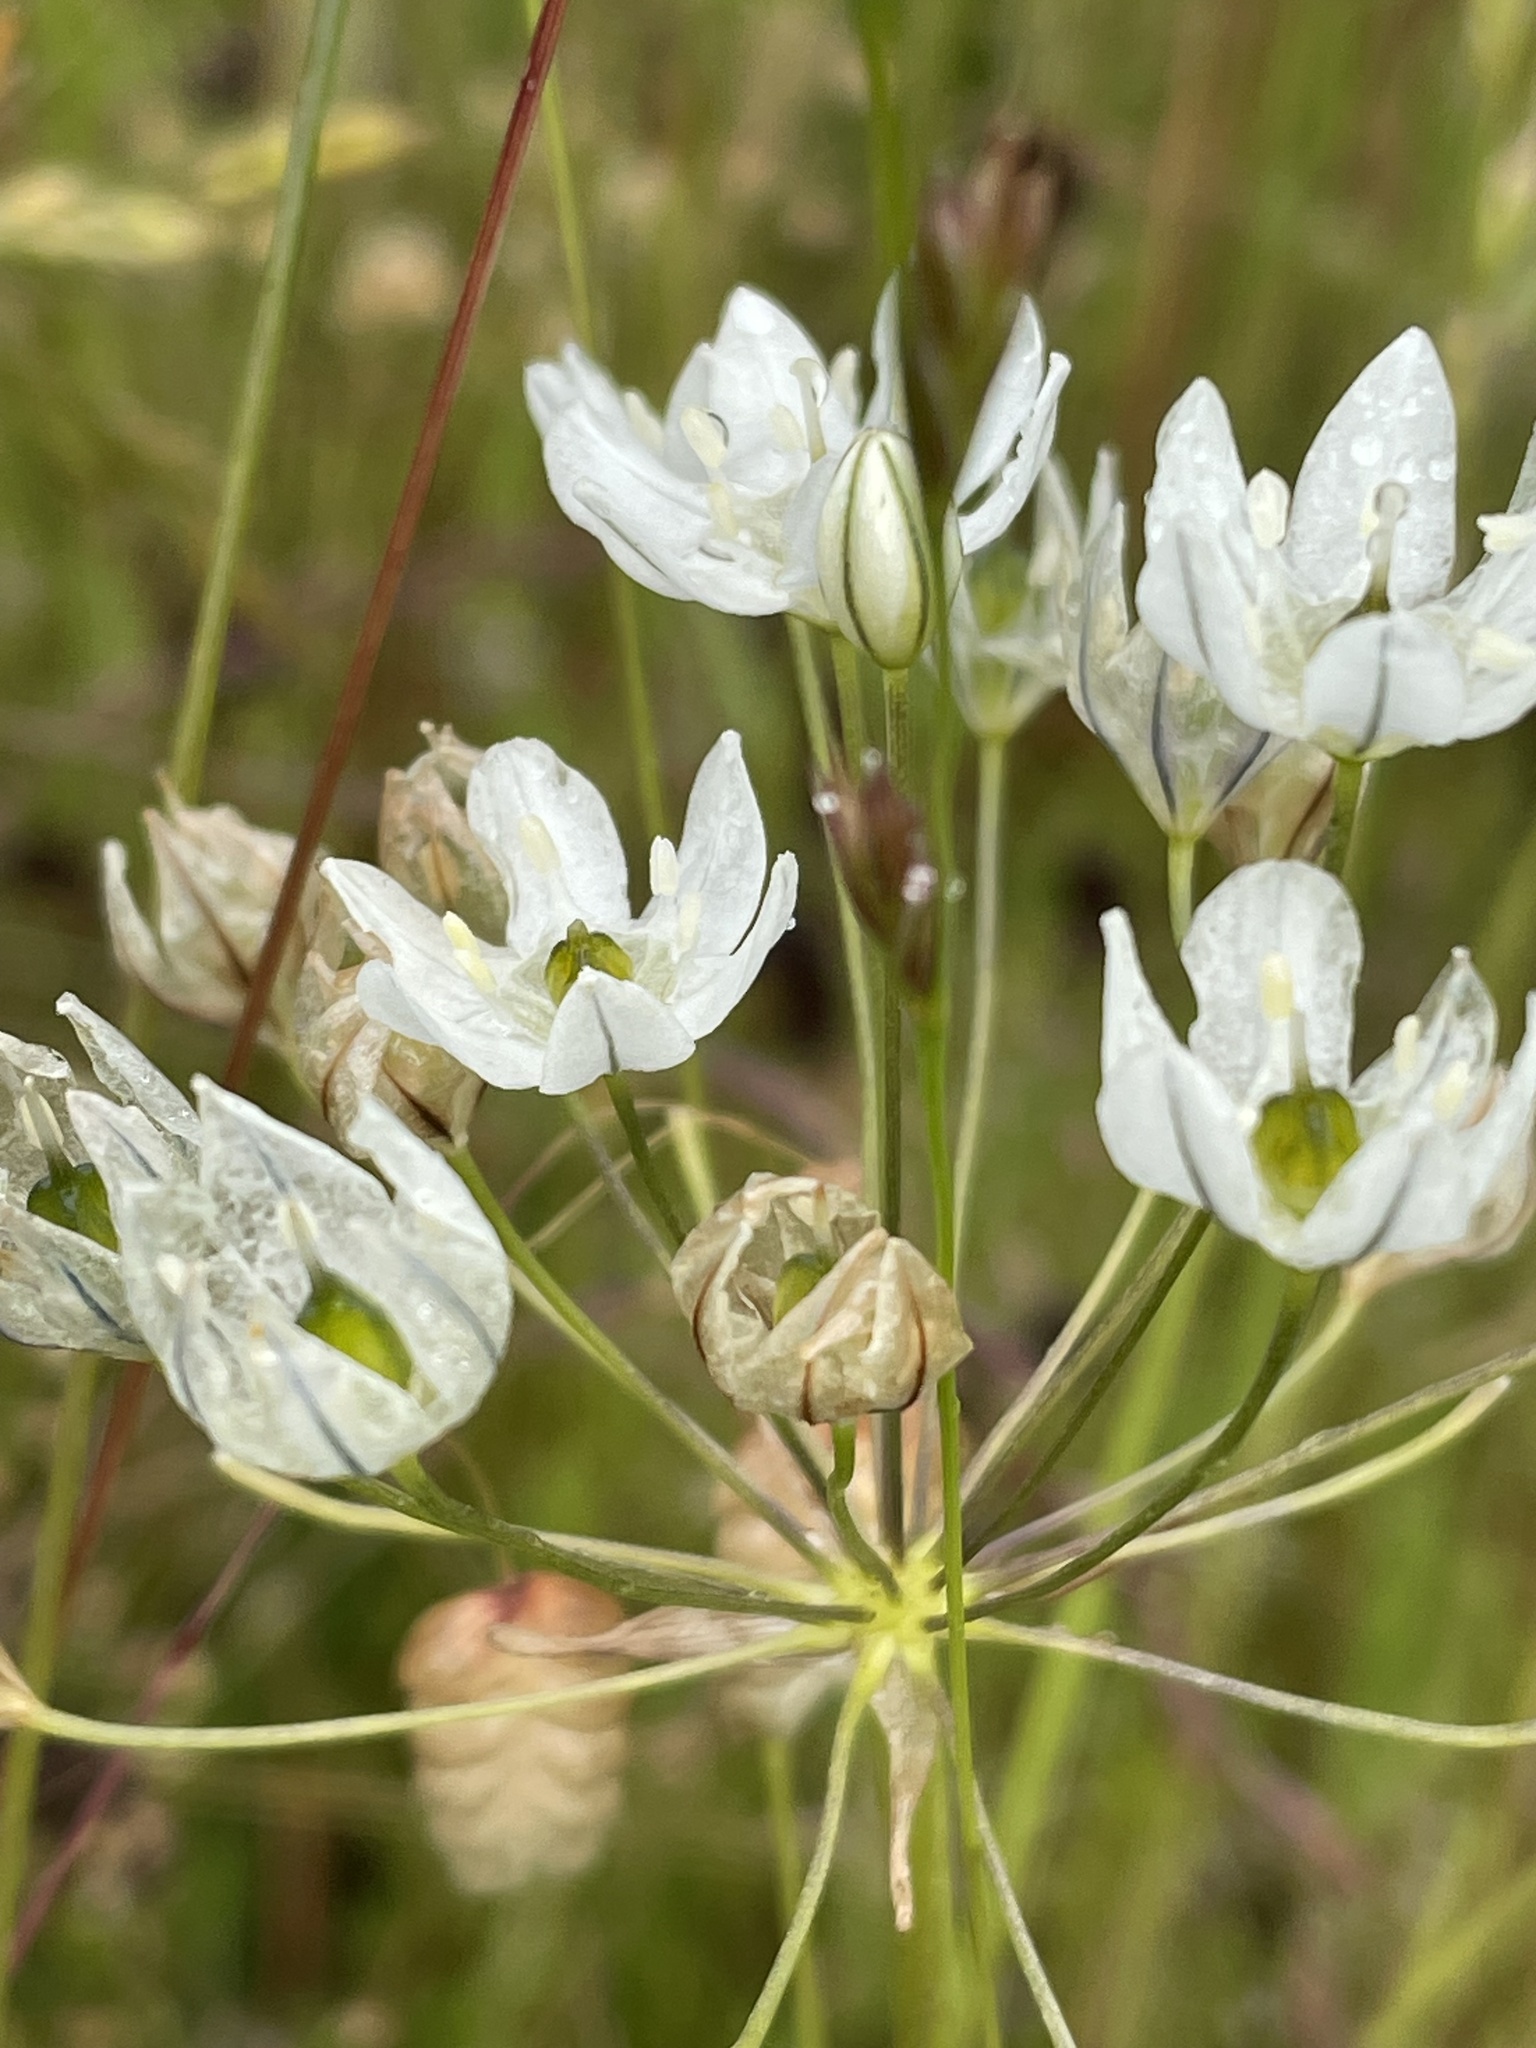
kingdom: Plantae
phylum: Tracheophyta
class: Liliopsida
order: Asparagales
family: Asparagaceae
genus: Triteleia
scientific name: Triteleia hyacinthina
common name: White brodiaea
